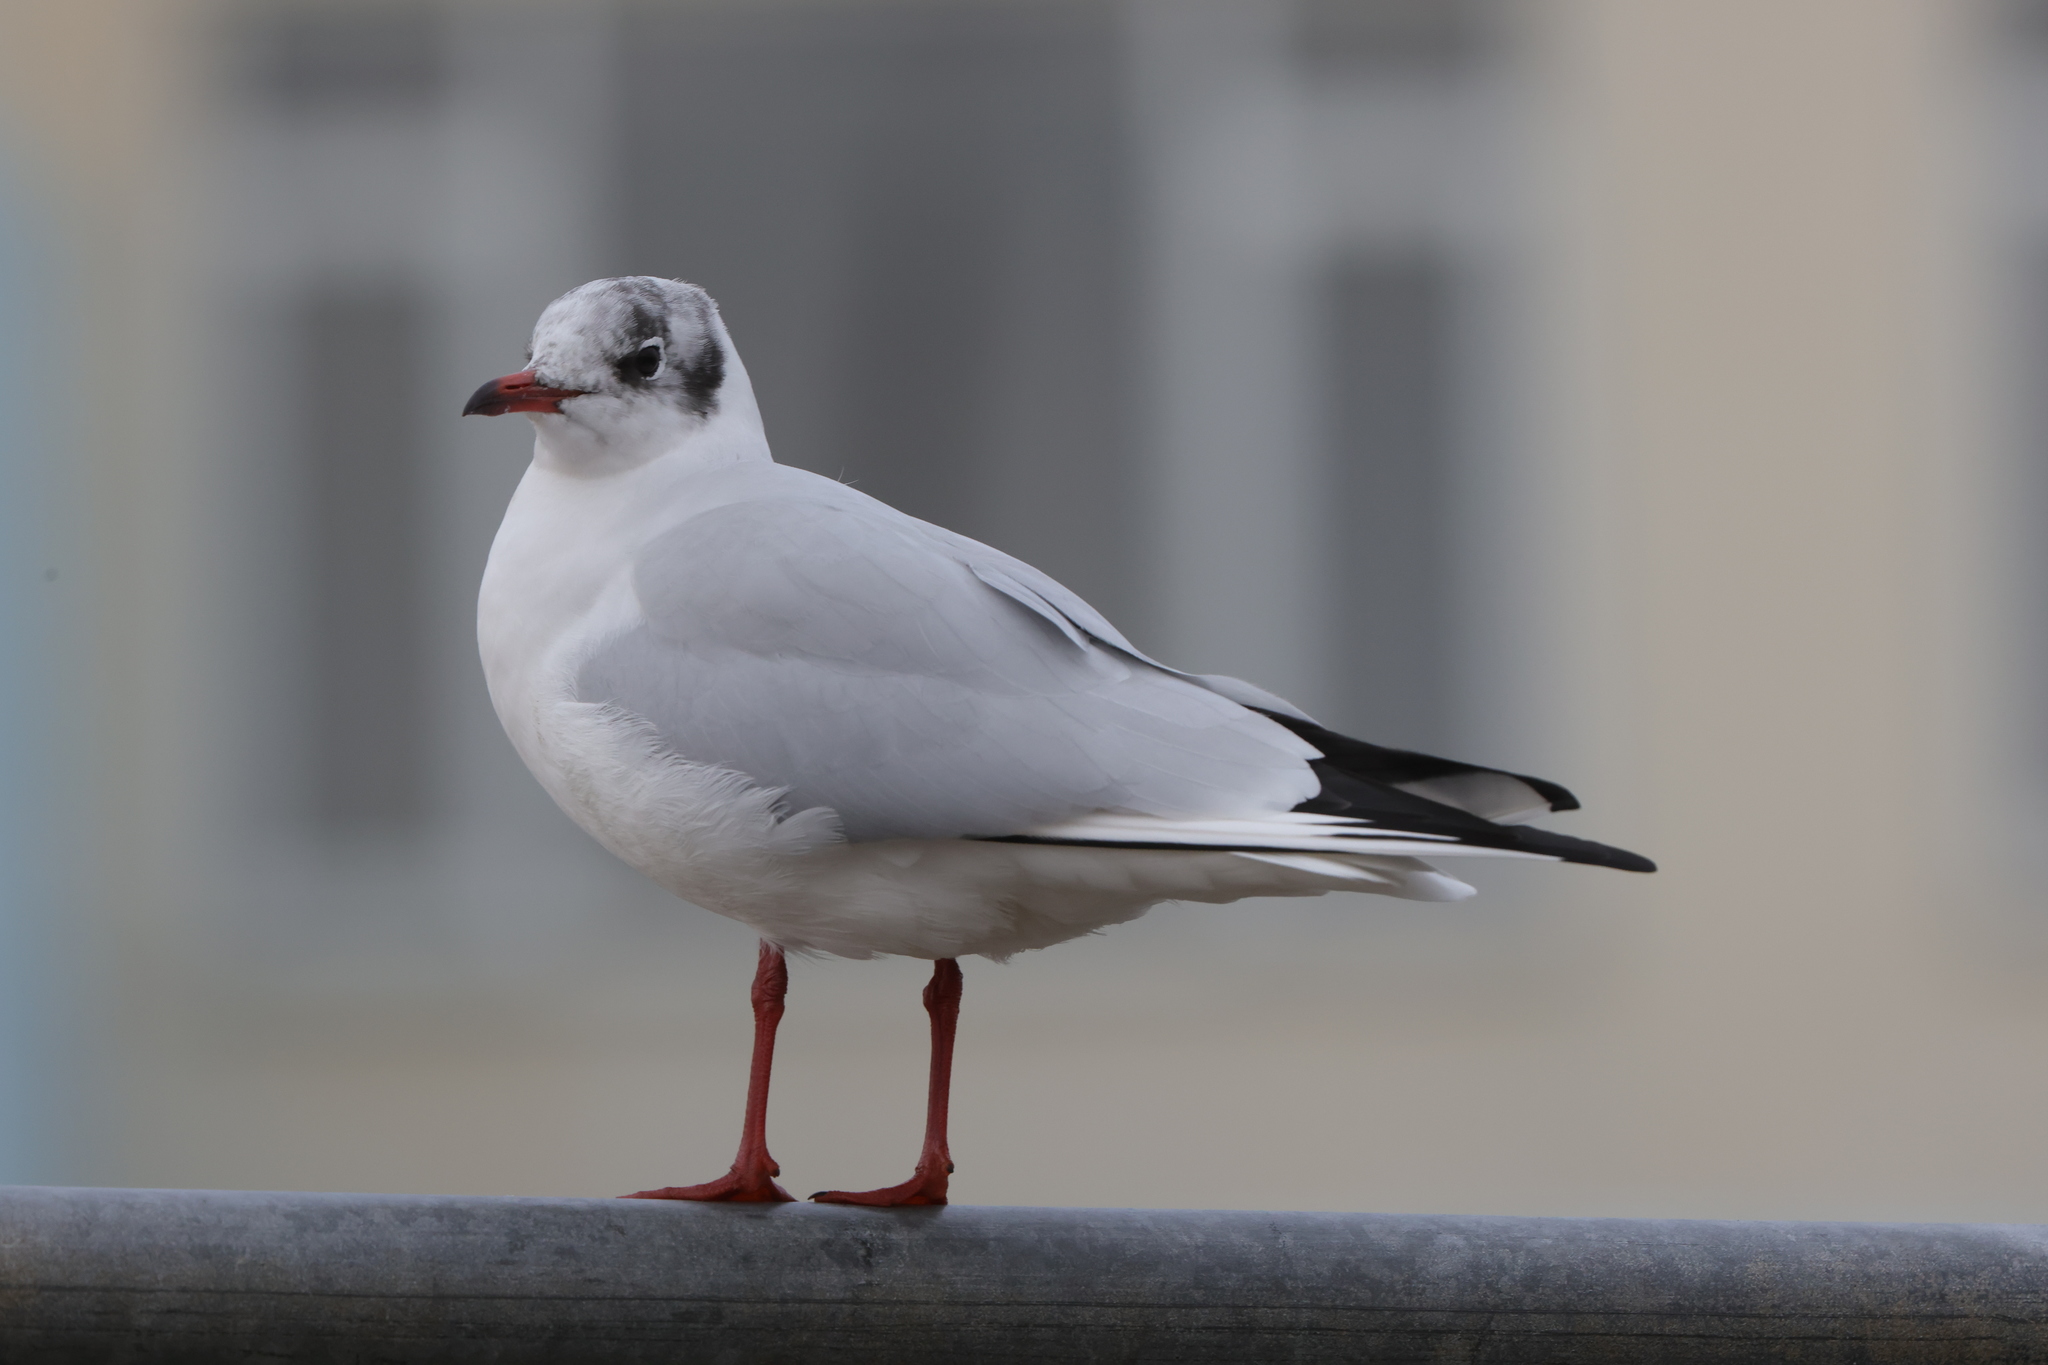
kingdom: Animalia
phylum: Chordata
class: Aves
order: Charadriiformes
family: Laridae
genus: Chroicocephalus
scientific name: Chroicocephalus ridibundus
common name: Black-headed gull
